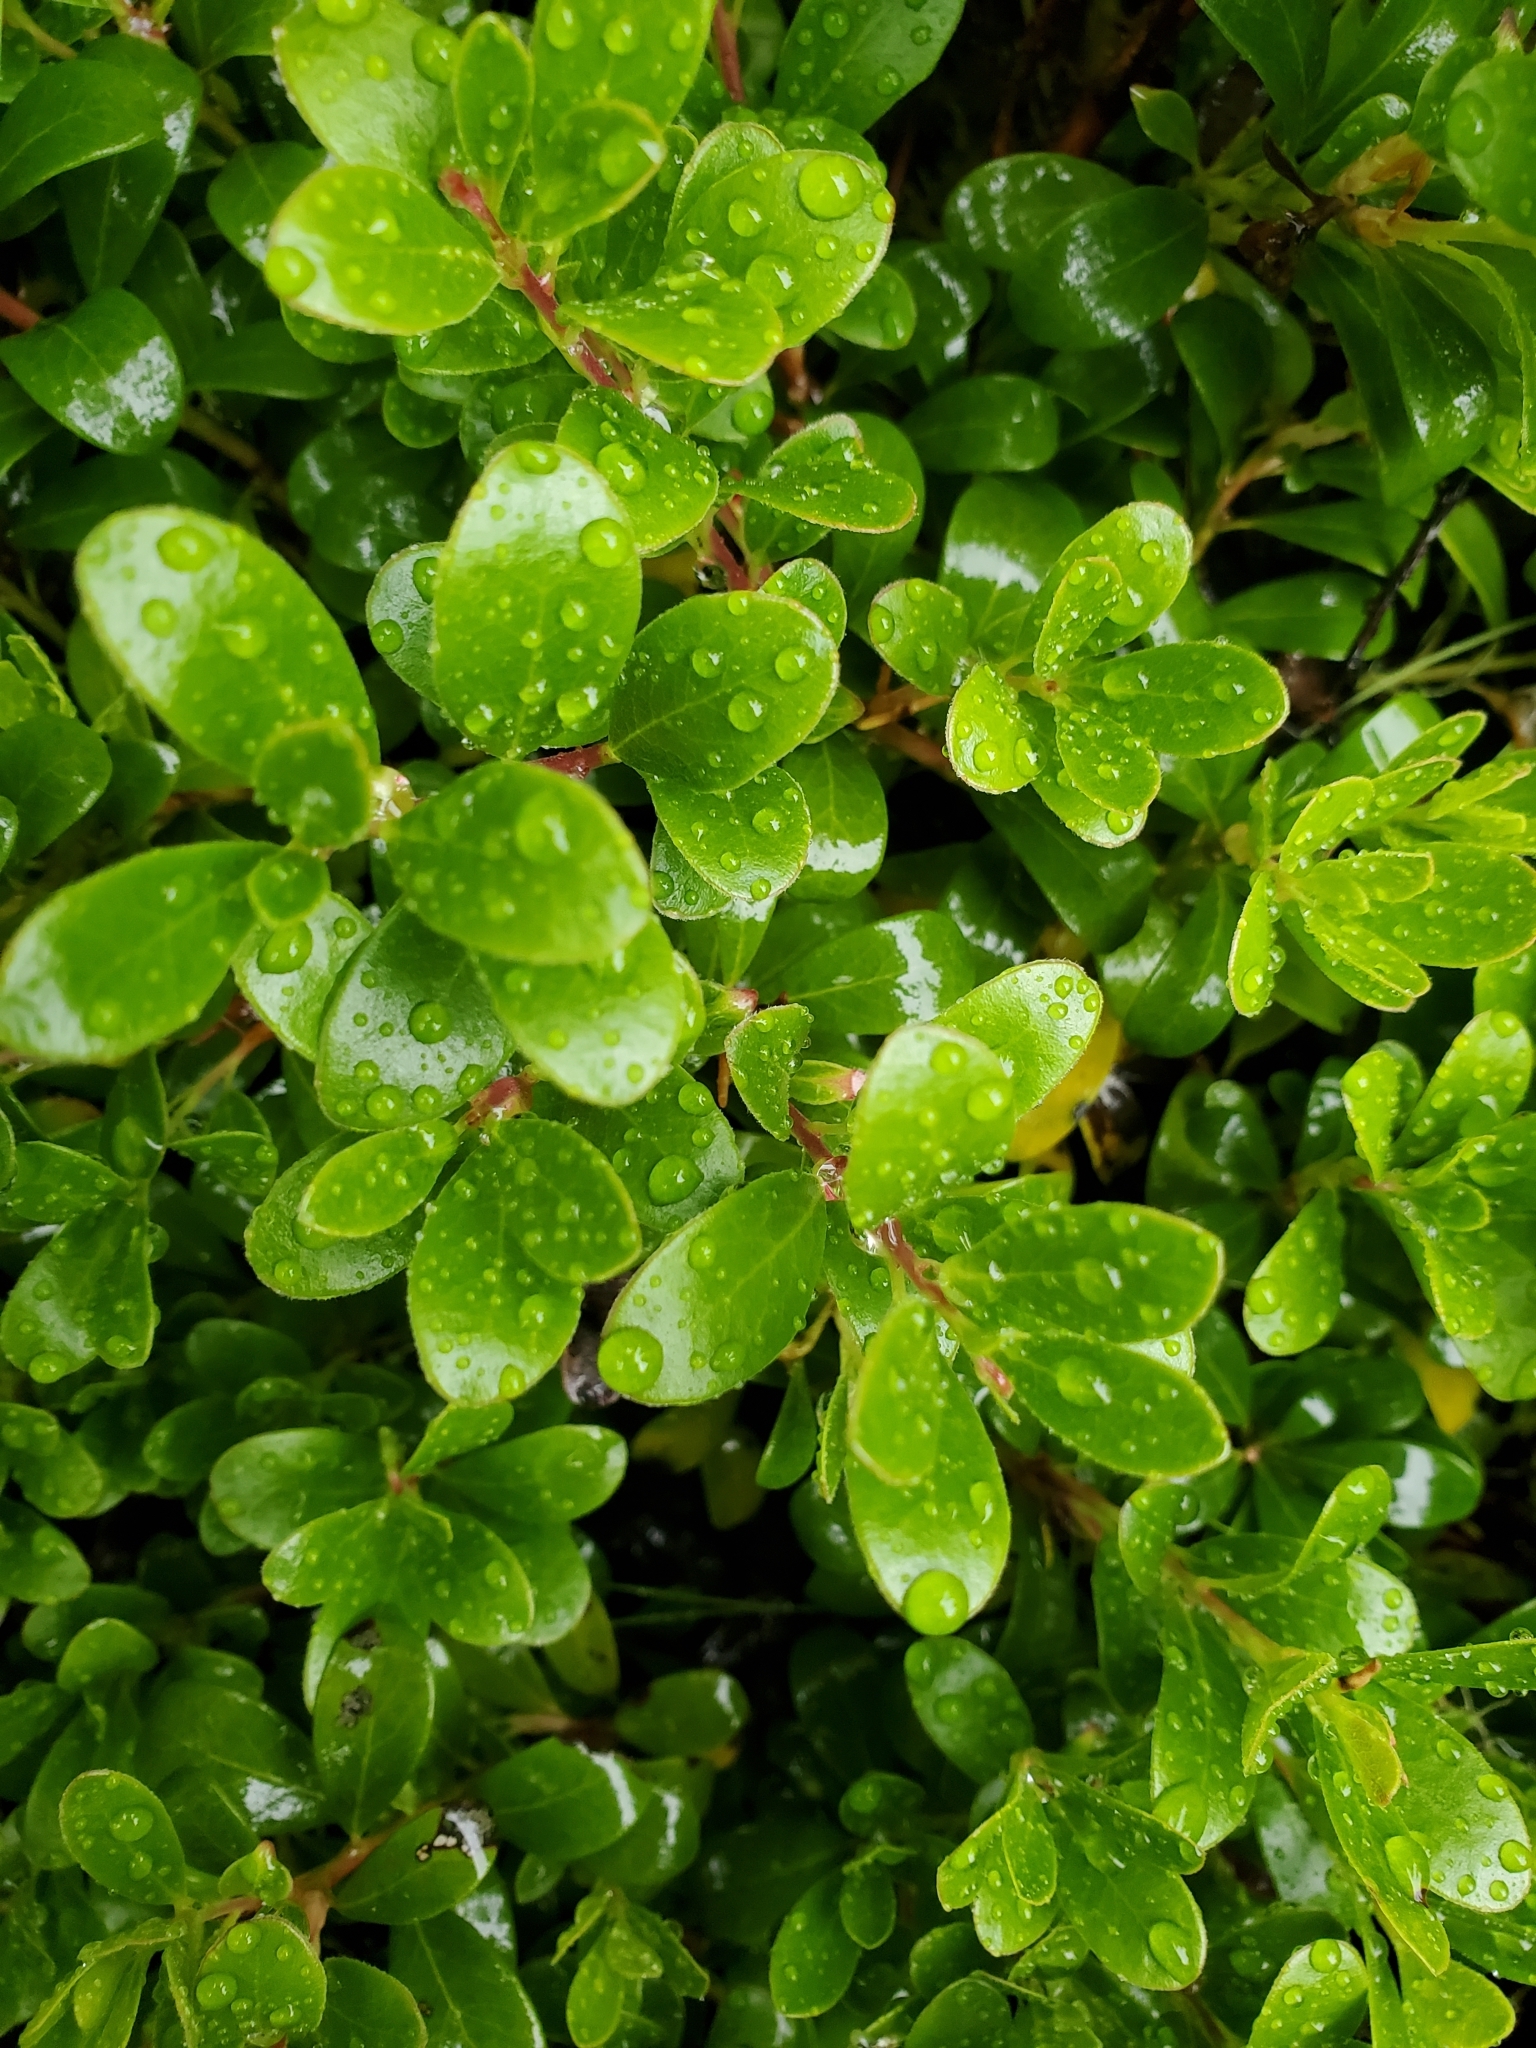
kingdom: Plantae
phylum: Tracheophyta
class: Magnoliopsida
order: Ericales
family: Ericaceae
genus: Arctostaphylos
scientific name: Arctostaphylos uva-ursi
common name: Bearberry
